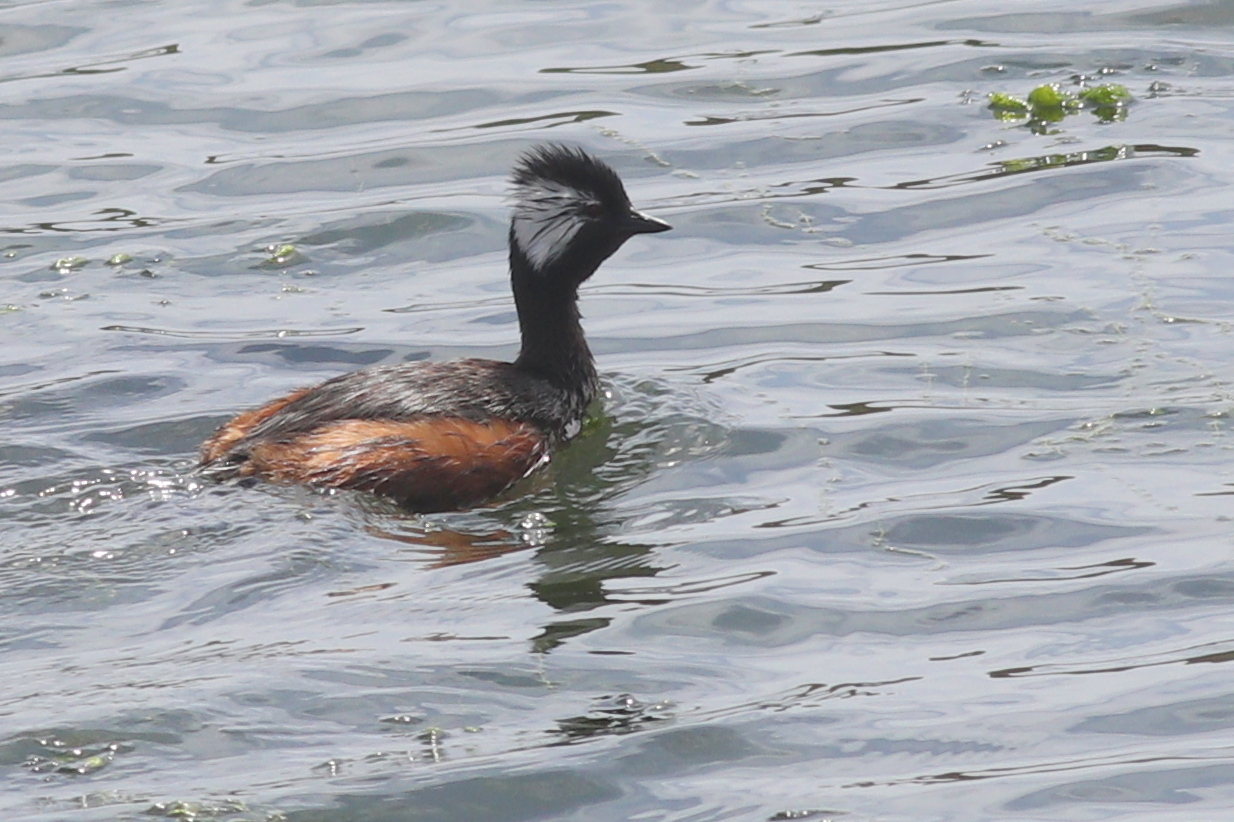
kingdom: Animalia
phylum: Chordata
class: Aves
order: Podicipediformes
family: Podicipedidae
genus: Rollandia
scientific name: Rollandia rolland
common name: White-tufted grebe
